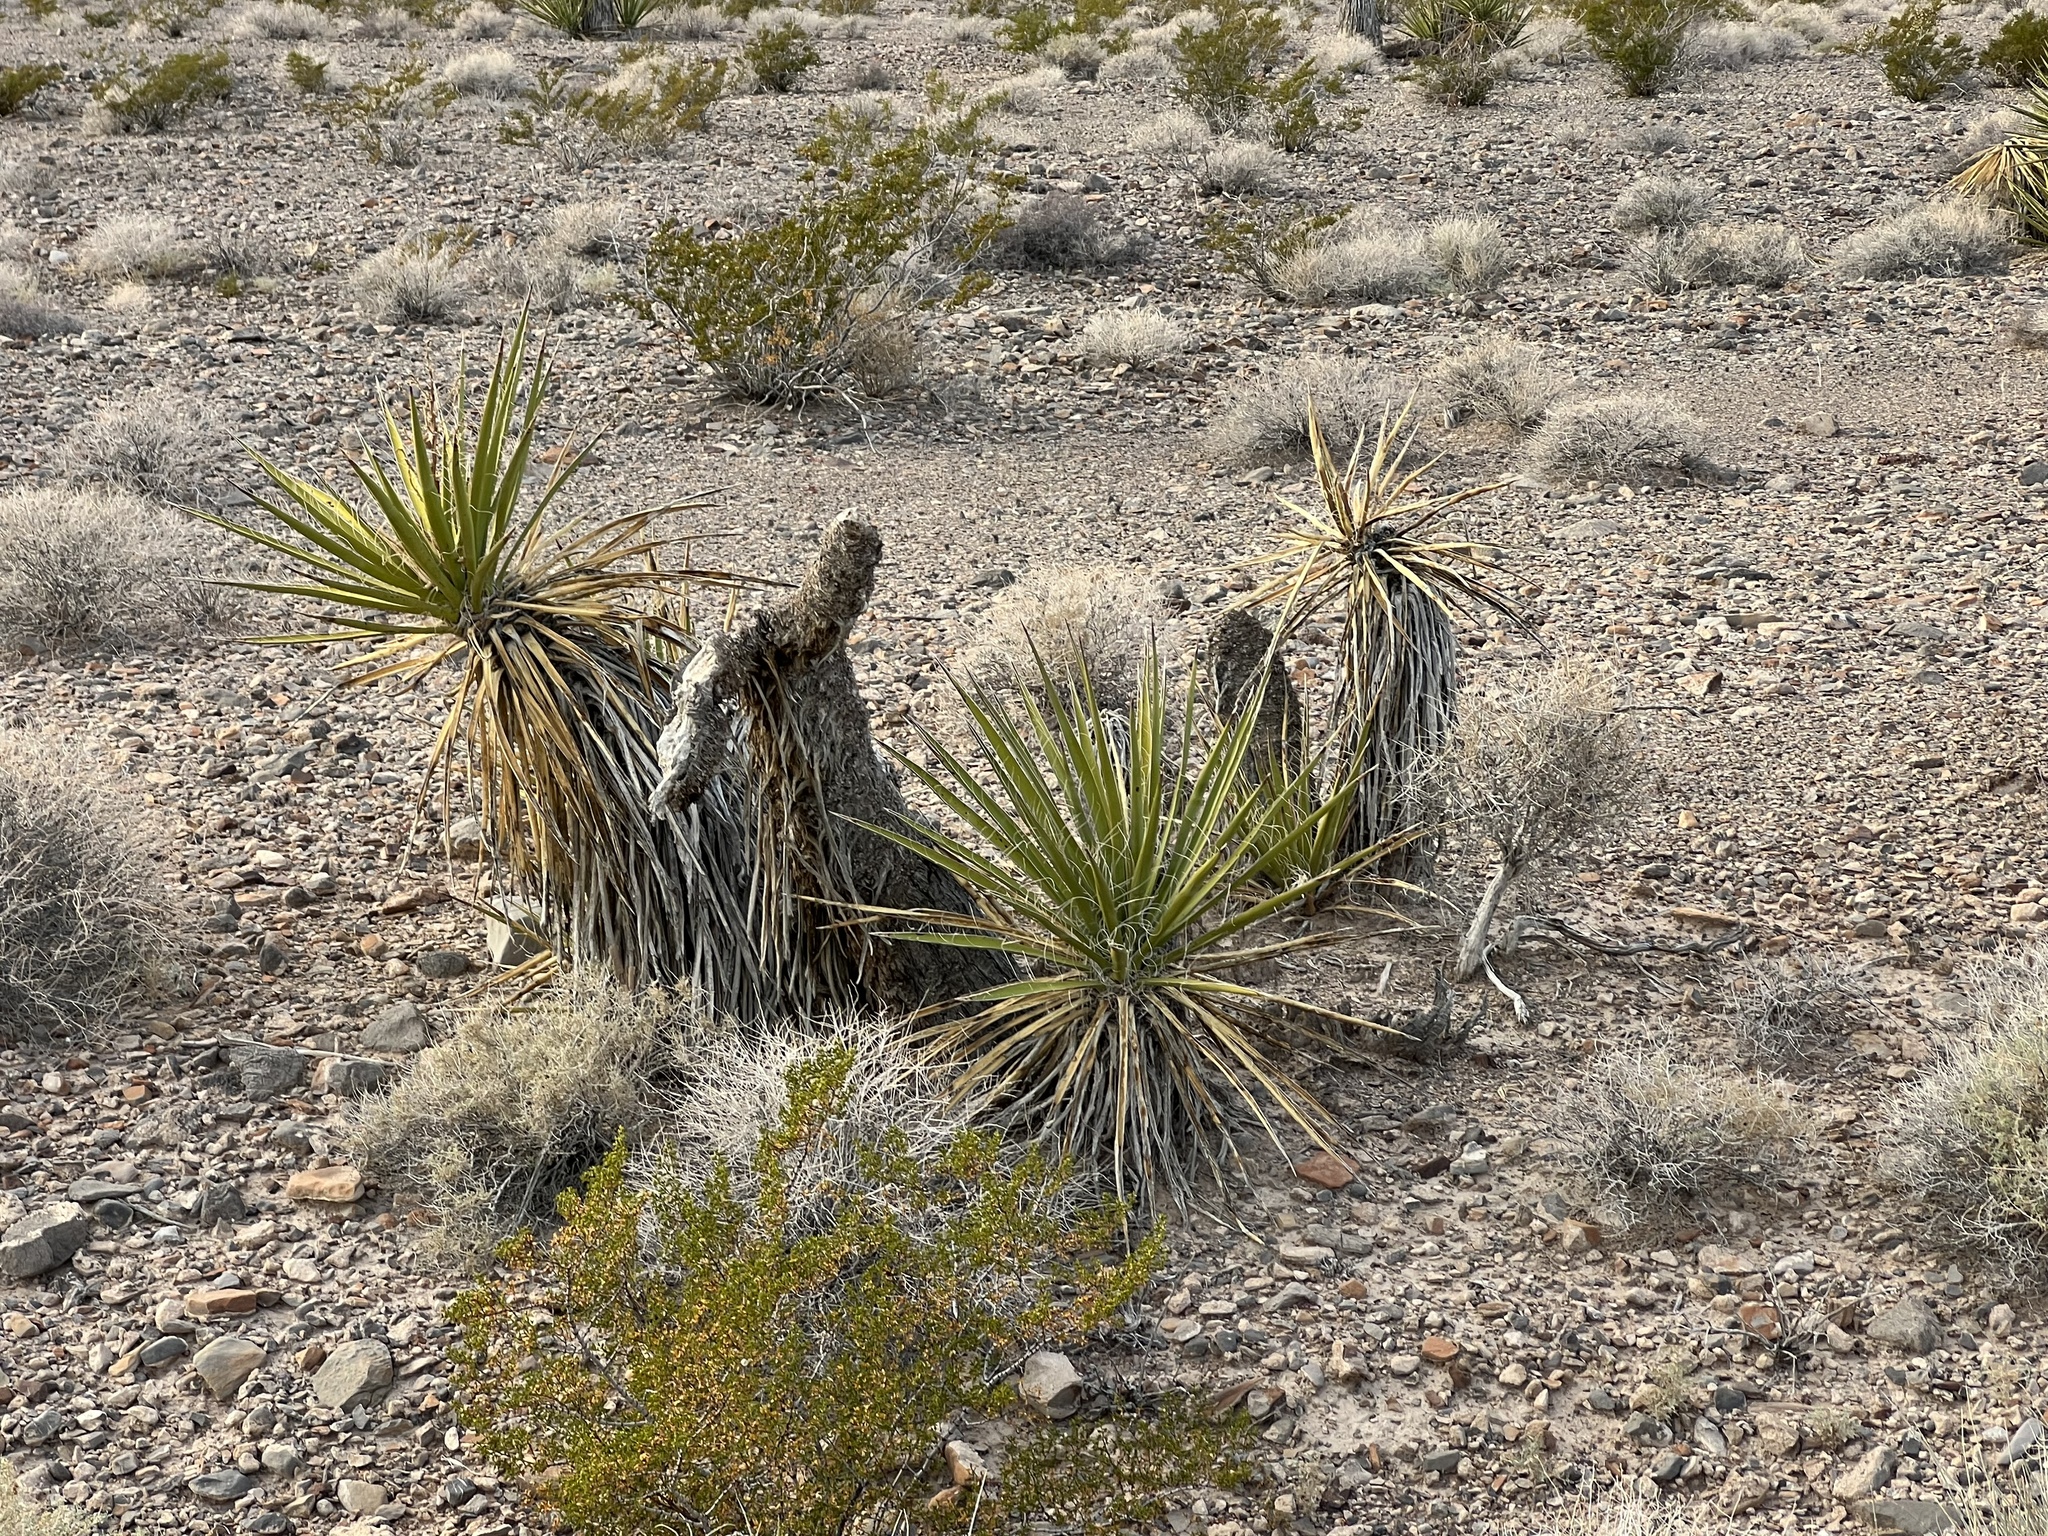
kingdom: Plantae
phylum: Tracheophyta
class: Liliopsida
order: Asparagales
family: Asparagaceae
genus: Yucca
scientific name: Yucca schidigera
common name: Mojave yucca
